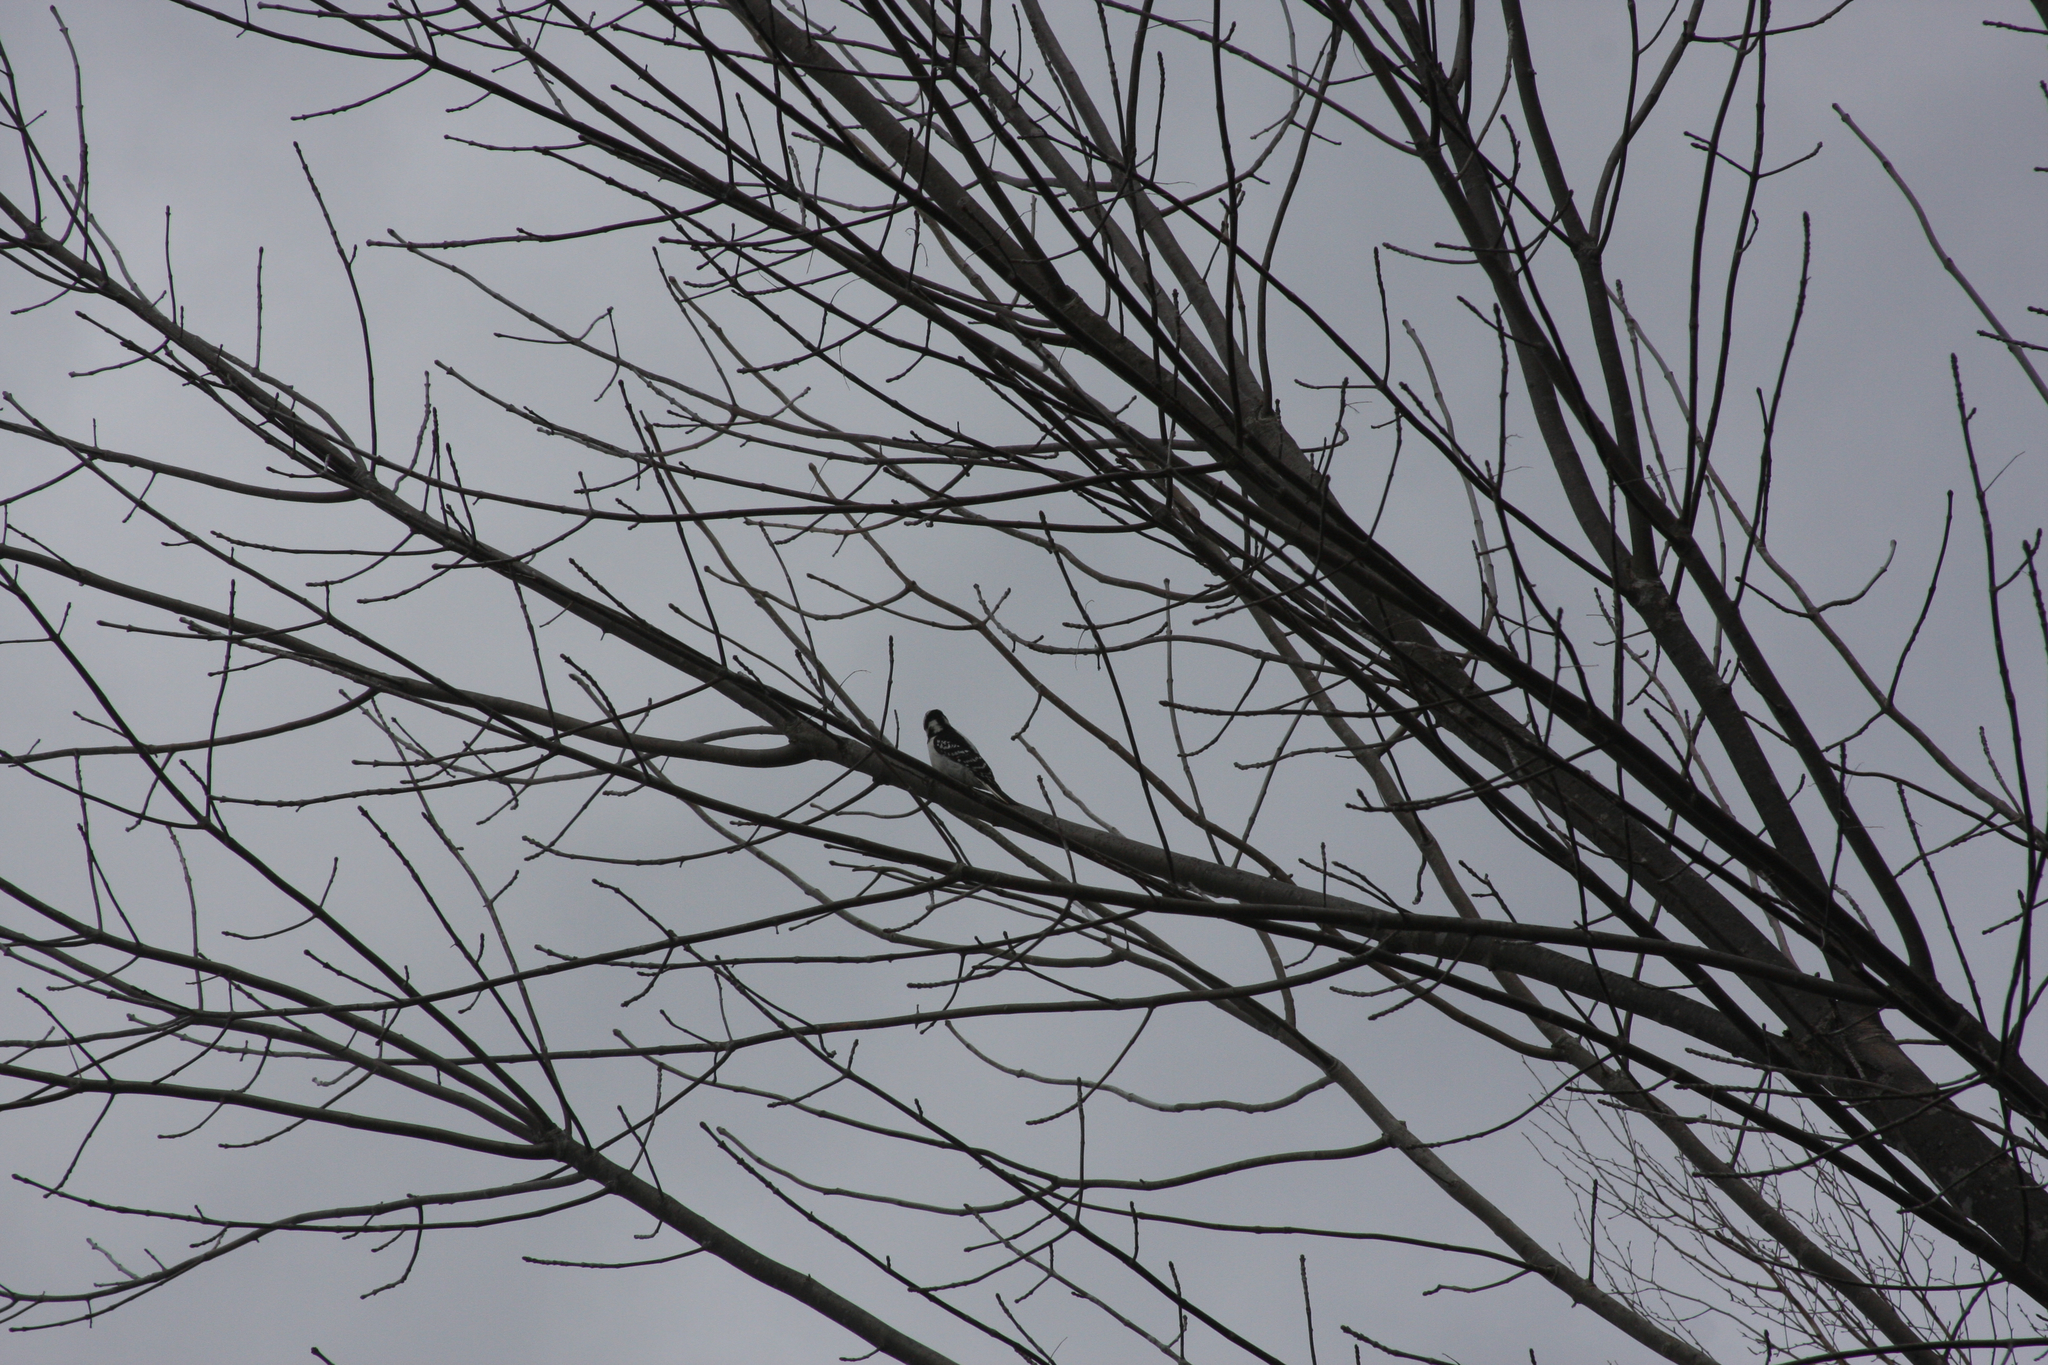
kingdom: Animalia
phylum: Chordata
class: Aves
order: Piciformes
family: Picidae
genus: Dryobates
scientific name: Dryobates pubescens
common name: Downy woodpecker
